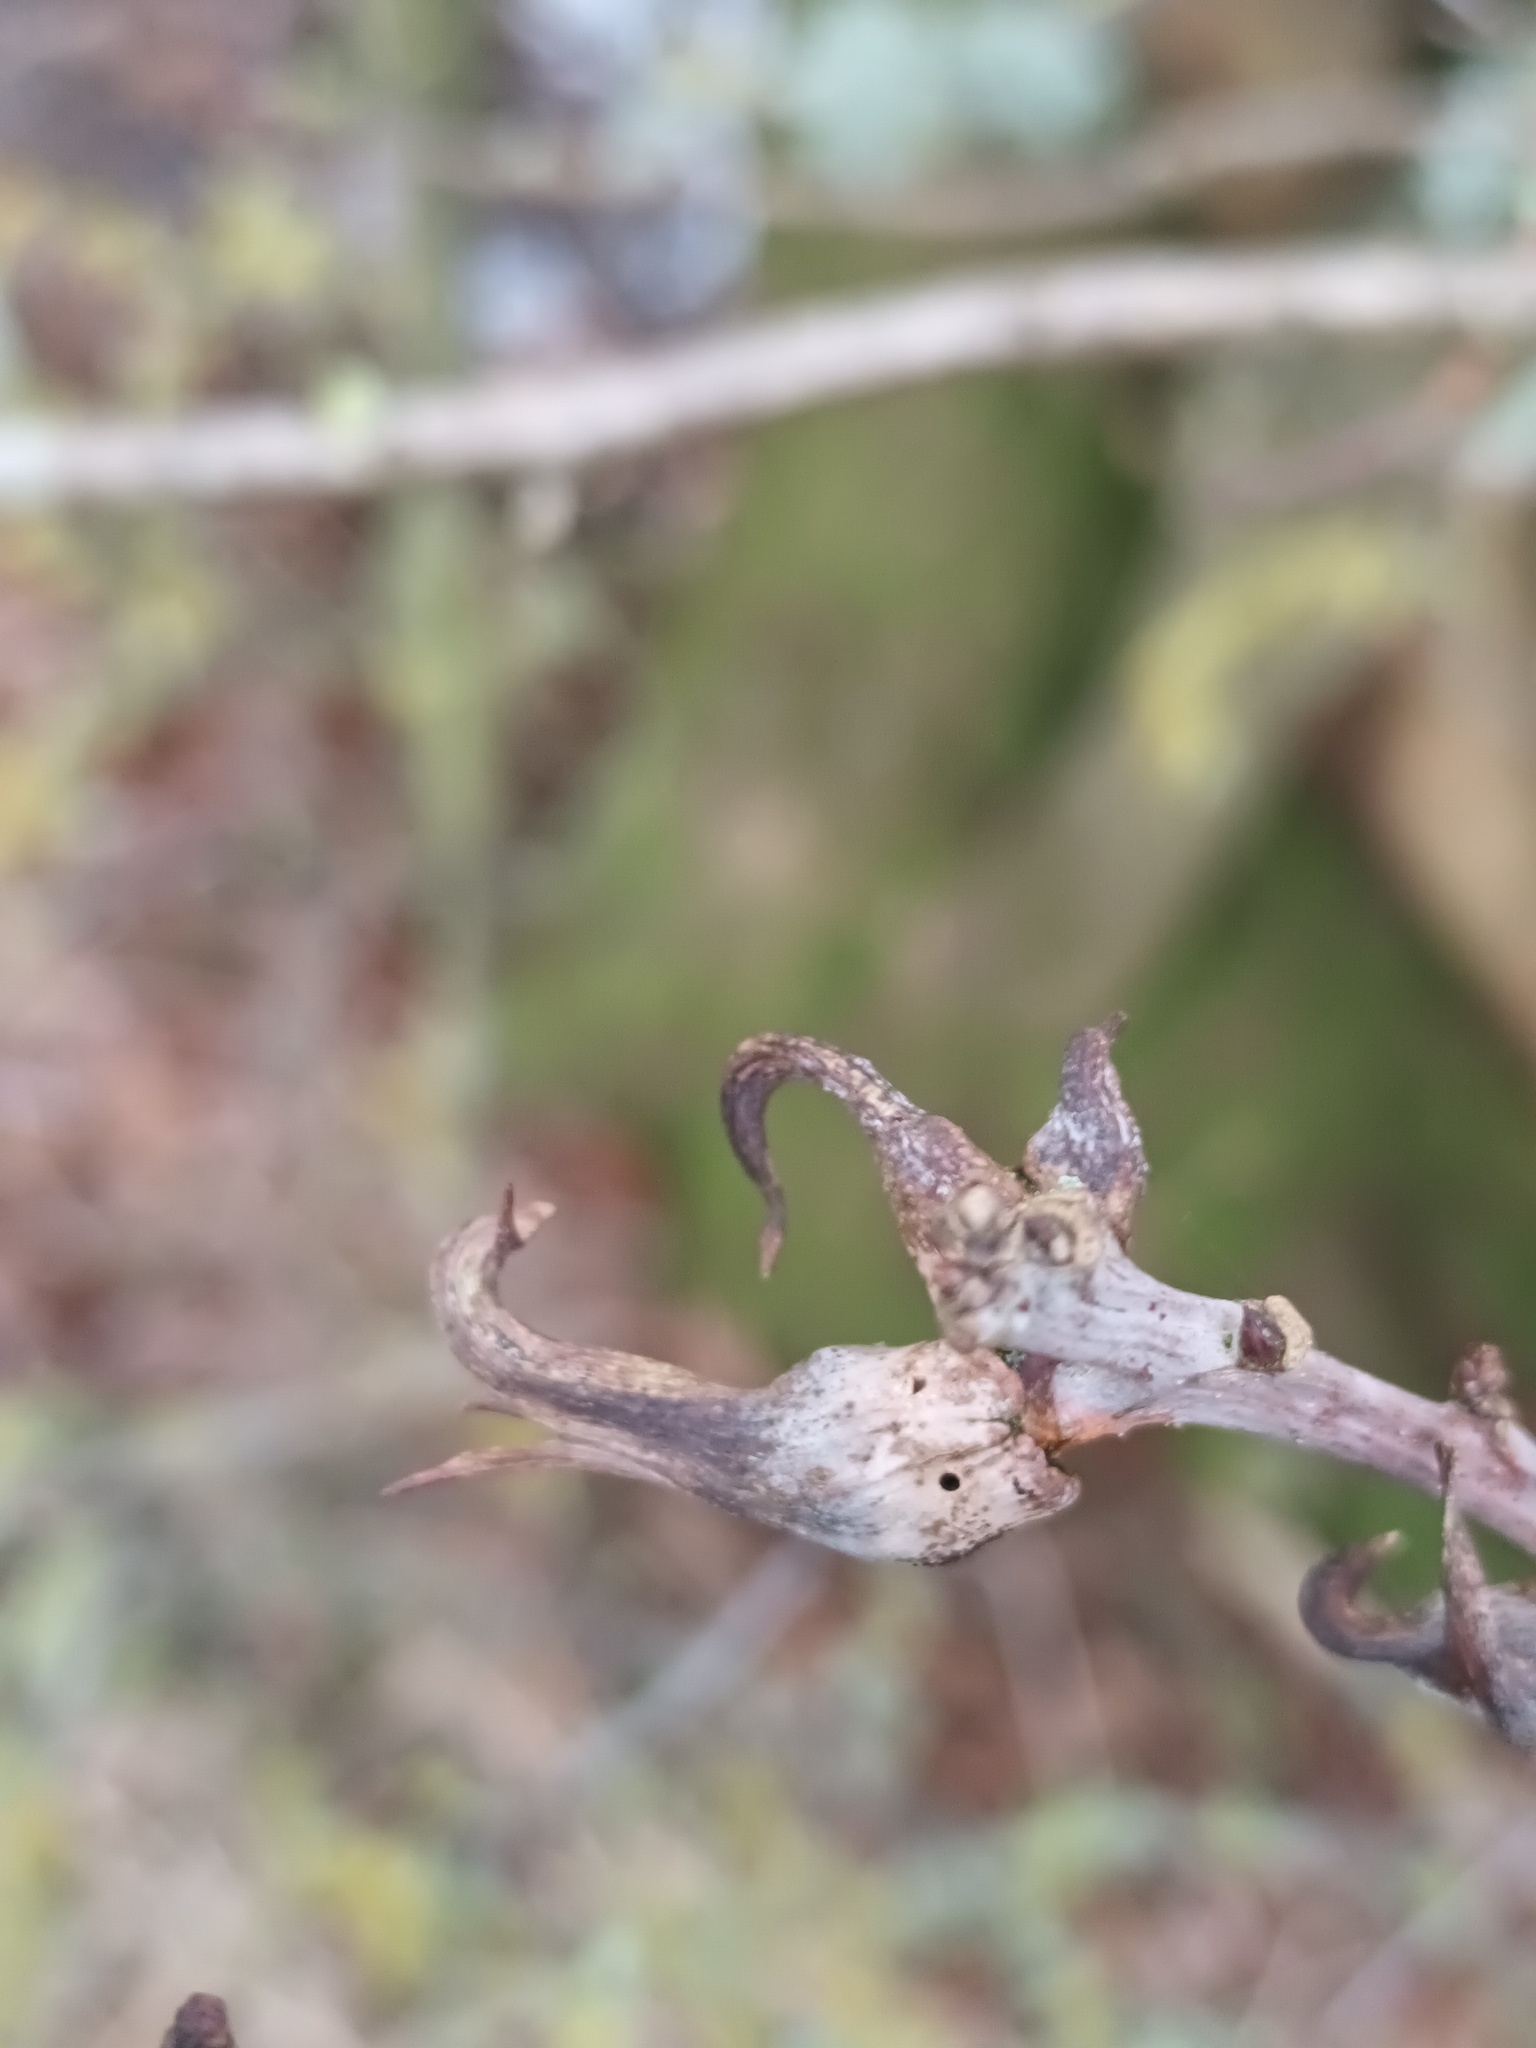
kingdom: Animalia
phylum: Arthropoda
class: Insecta
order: Hymenoptera
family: Cynipidae
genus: Andricus
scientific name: Andricus aries
